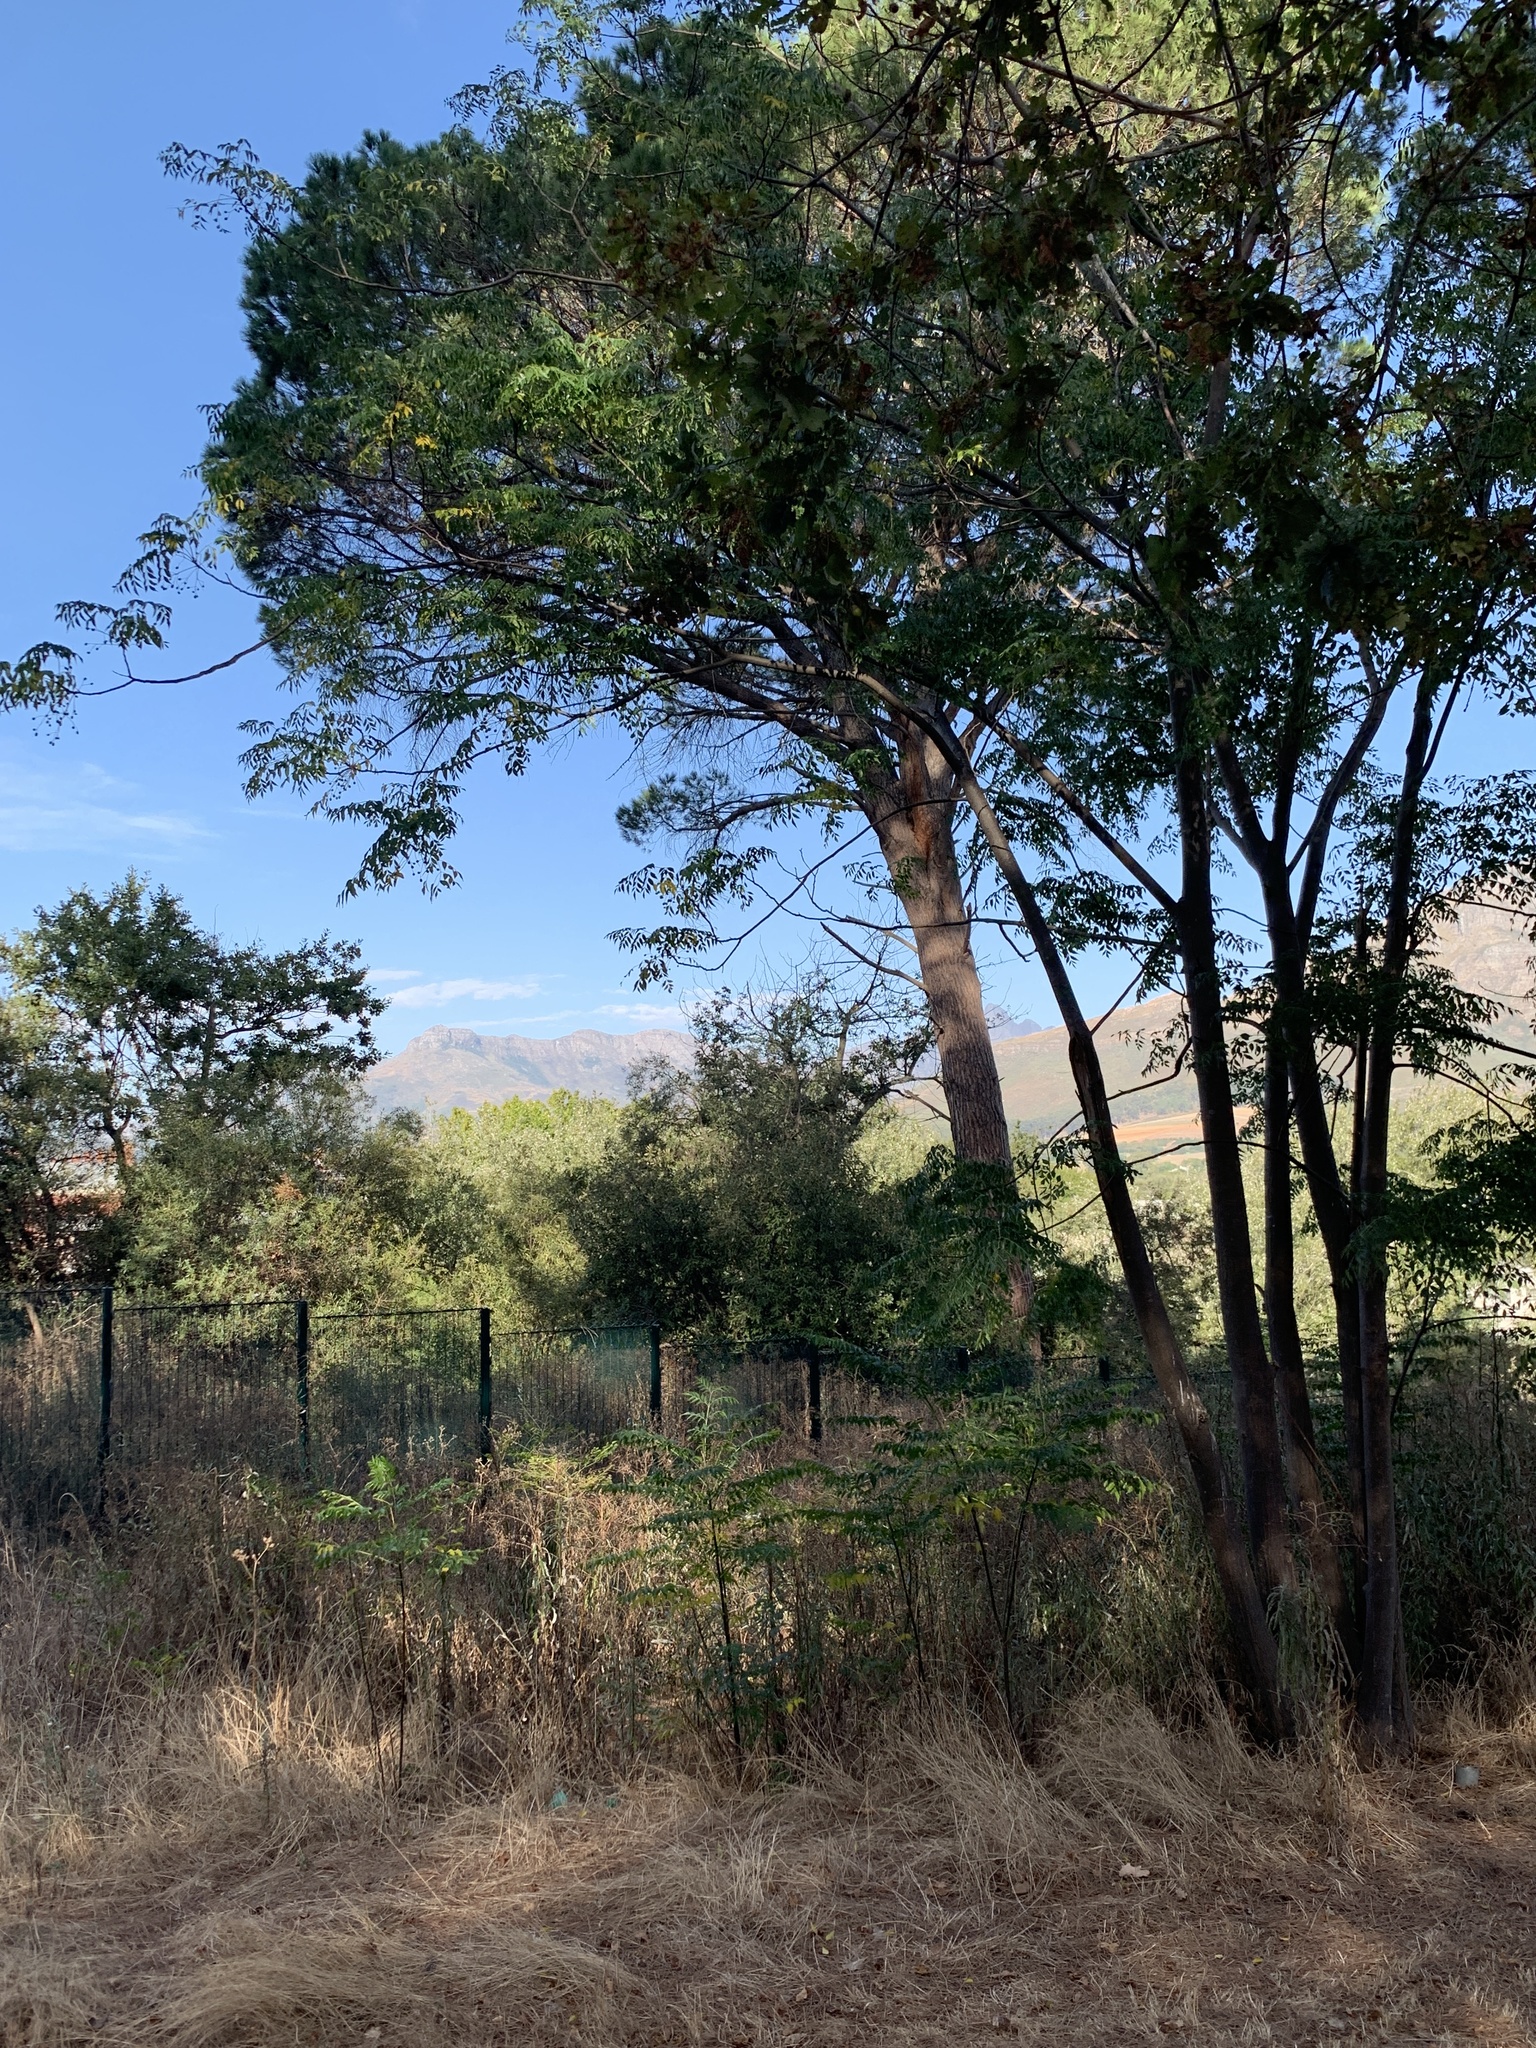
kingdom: Plantae
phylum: Tracheophyta
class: Magnoliopsida
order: Sapindales
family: Meliaceae
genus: Melia
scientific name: Melia azedarach
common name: Chinaberrytree
